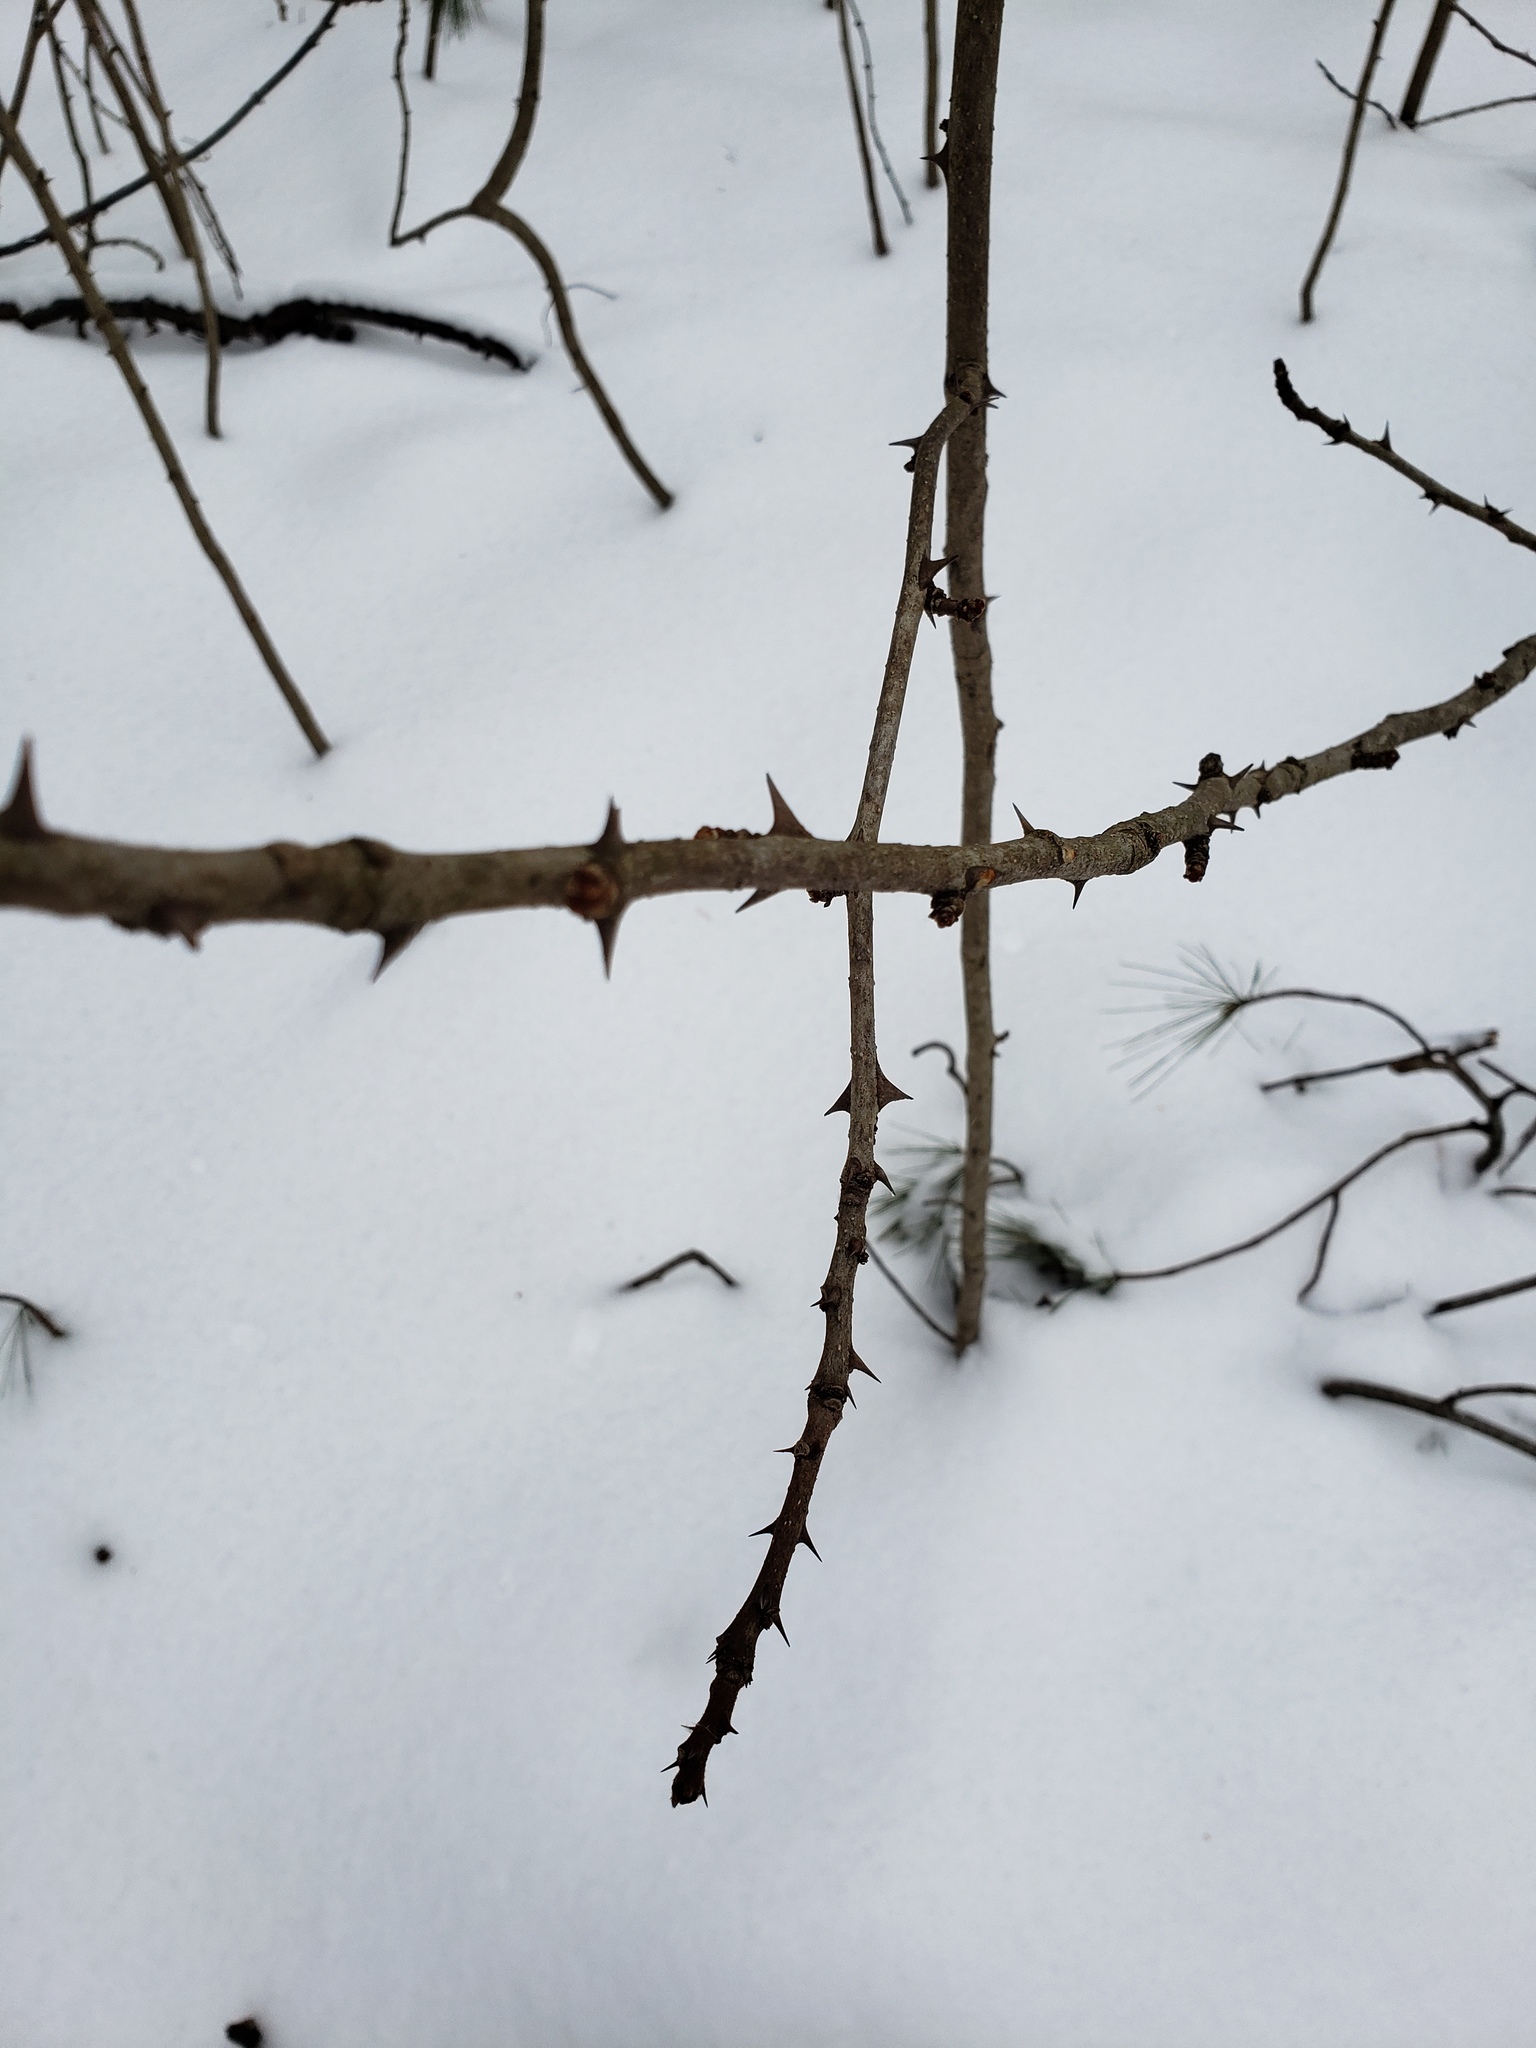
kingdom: Plantae
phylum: Tracheophyta
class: Magnoliopsida
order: Sapindales
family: Rutaceae
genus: Zanthoxylum
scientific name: Zanthoxylum americanum
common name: Northern prickly-ash
